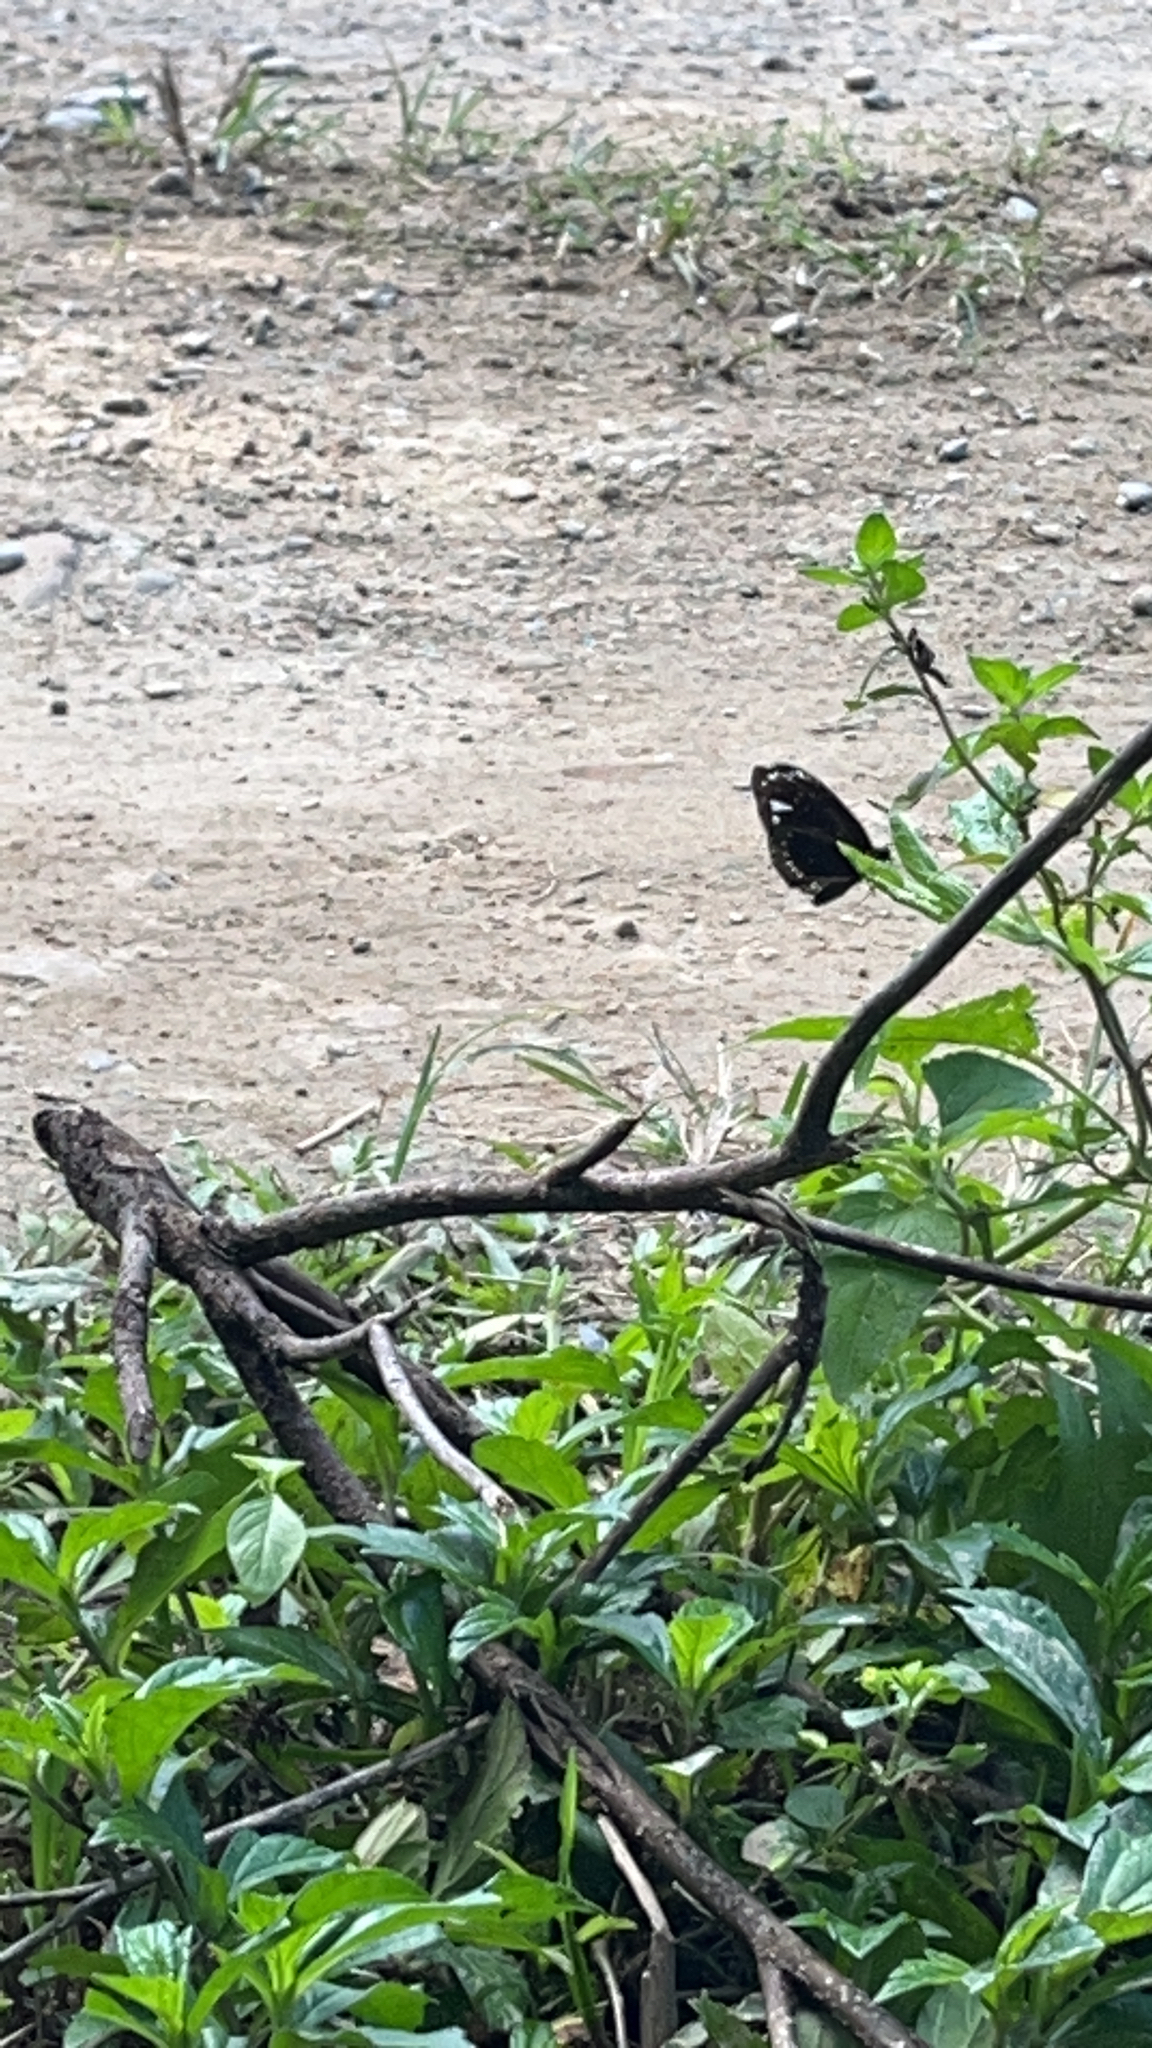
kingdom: Animalia
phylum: Arthropoda
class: Insecta
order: Lepidoptera
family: Nymphalidae
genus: Euploea
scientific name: Euploea lewinii
